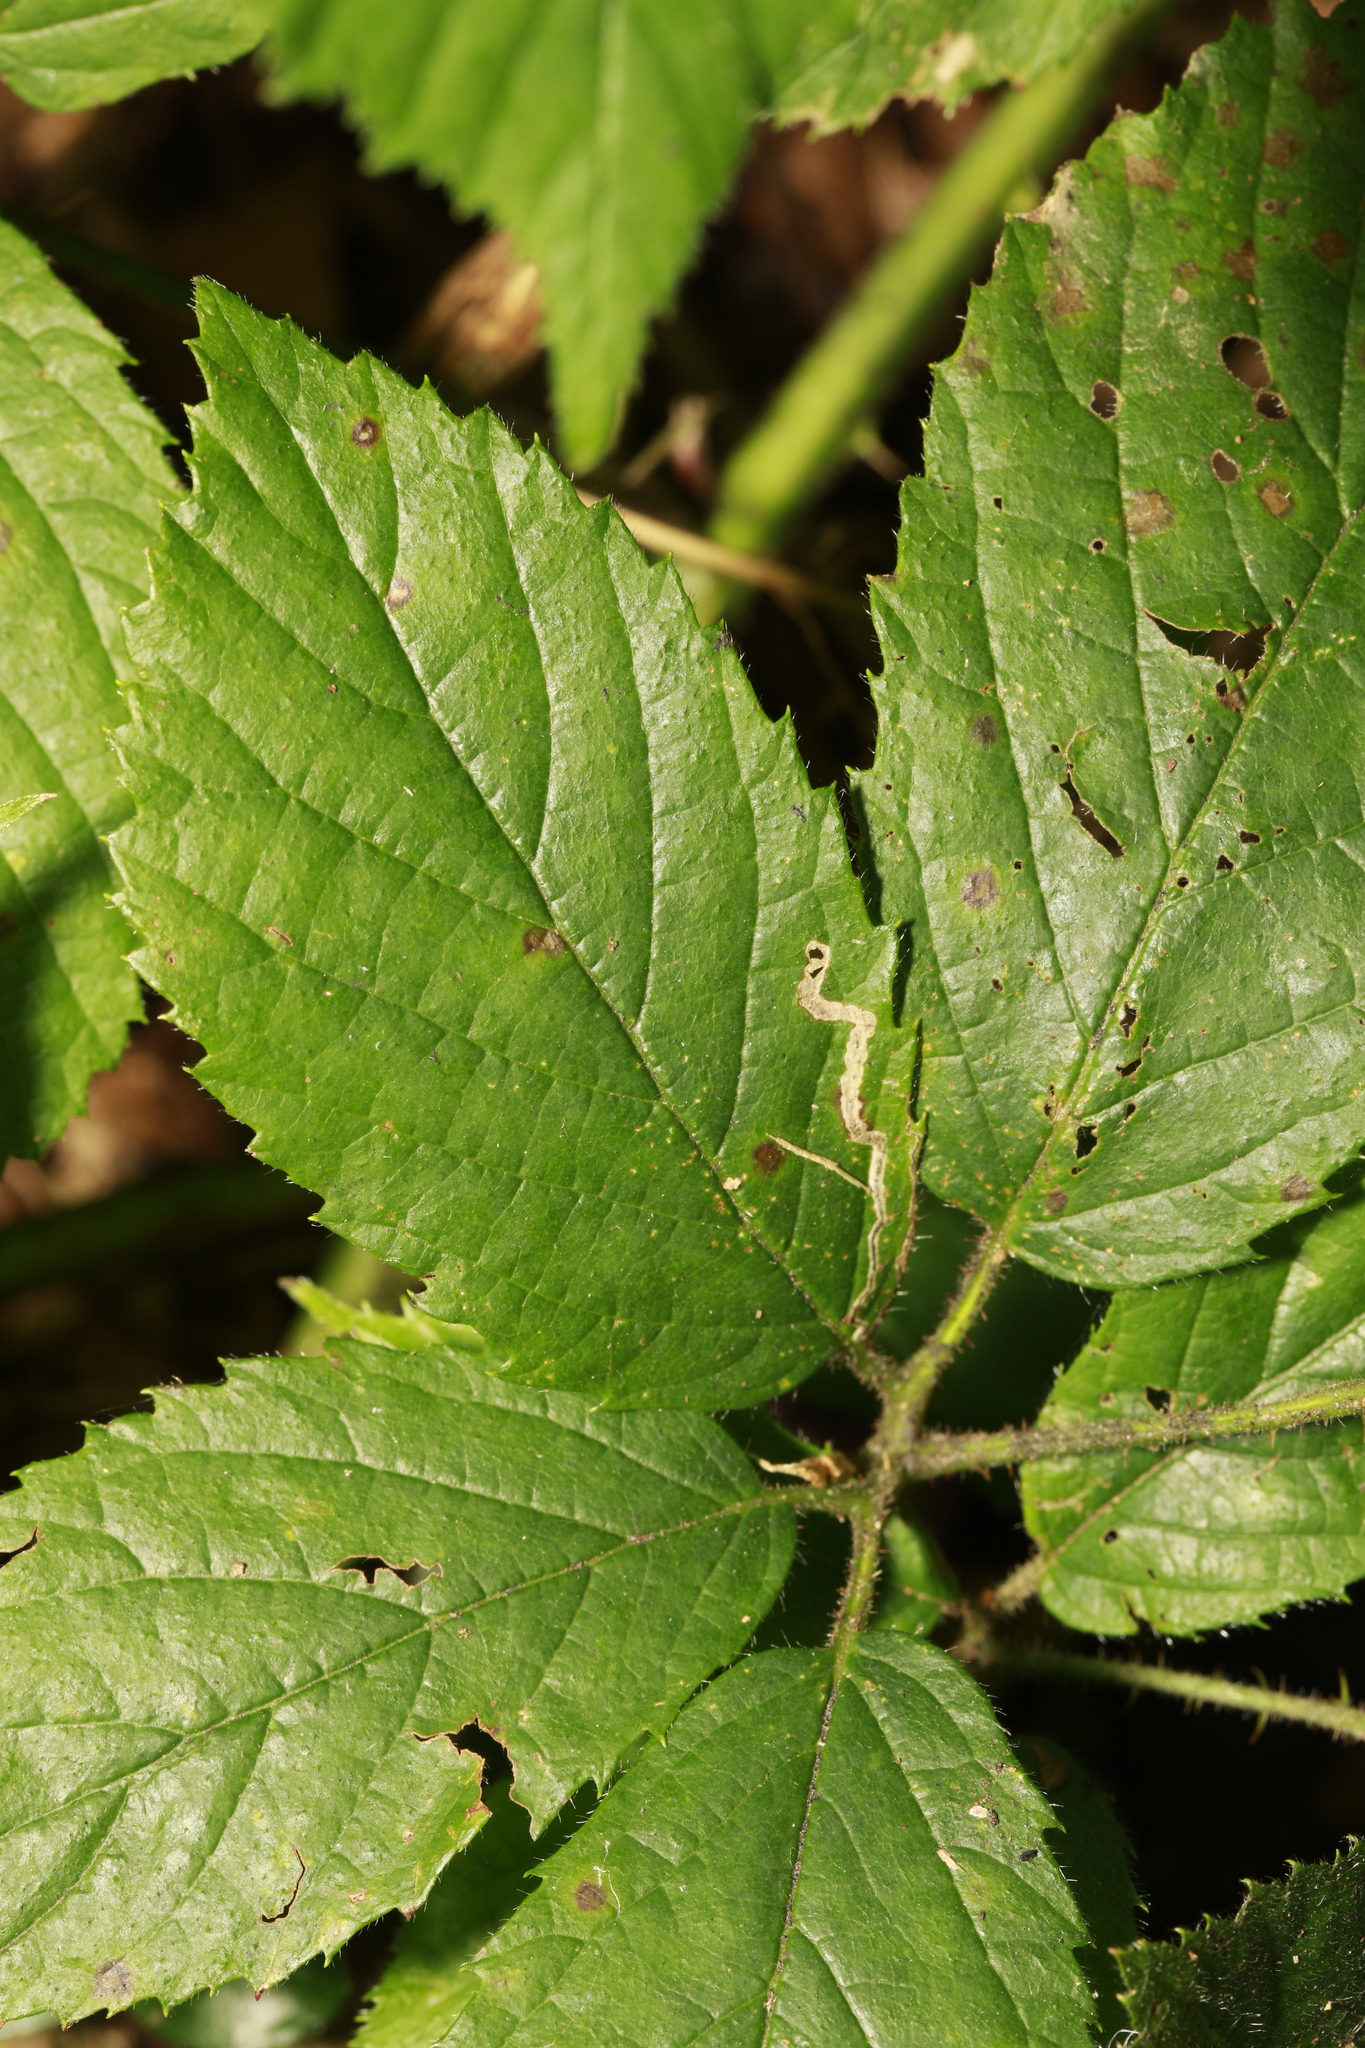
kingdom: Animalia
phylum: Arthropoda
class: Insecta
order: Lepidoptera
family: Nepticulidae
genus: Stigmella
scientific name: Stigmella aurella
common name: Golden pigmy
